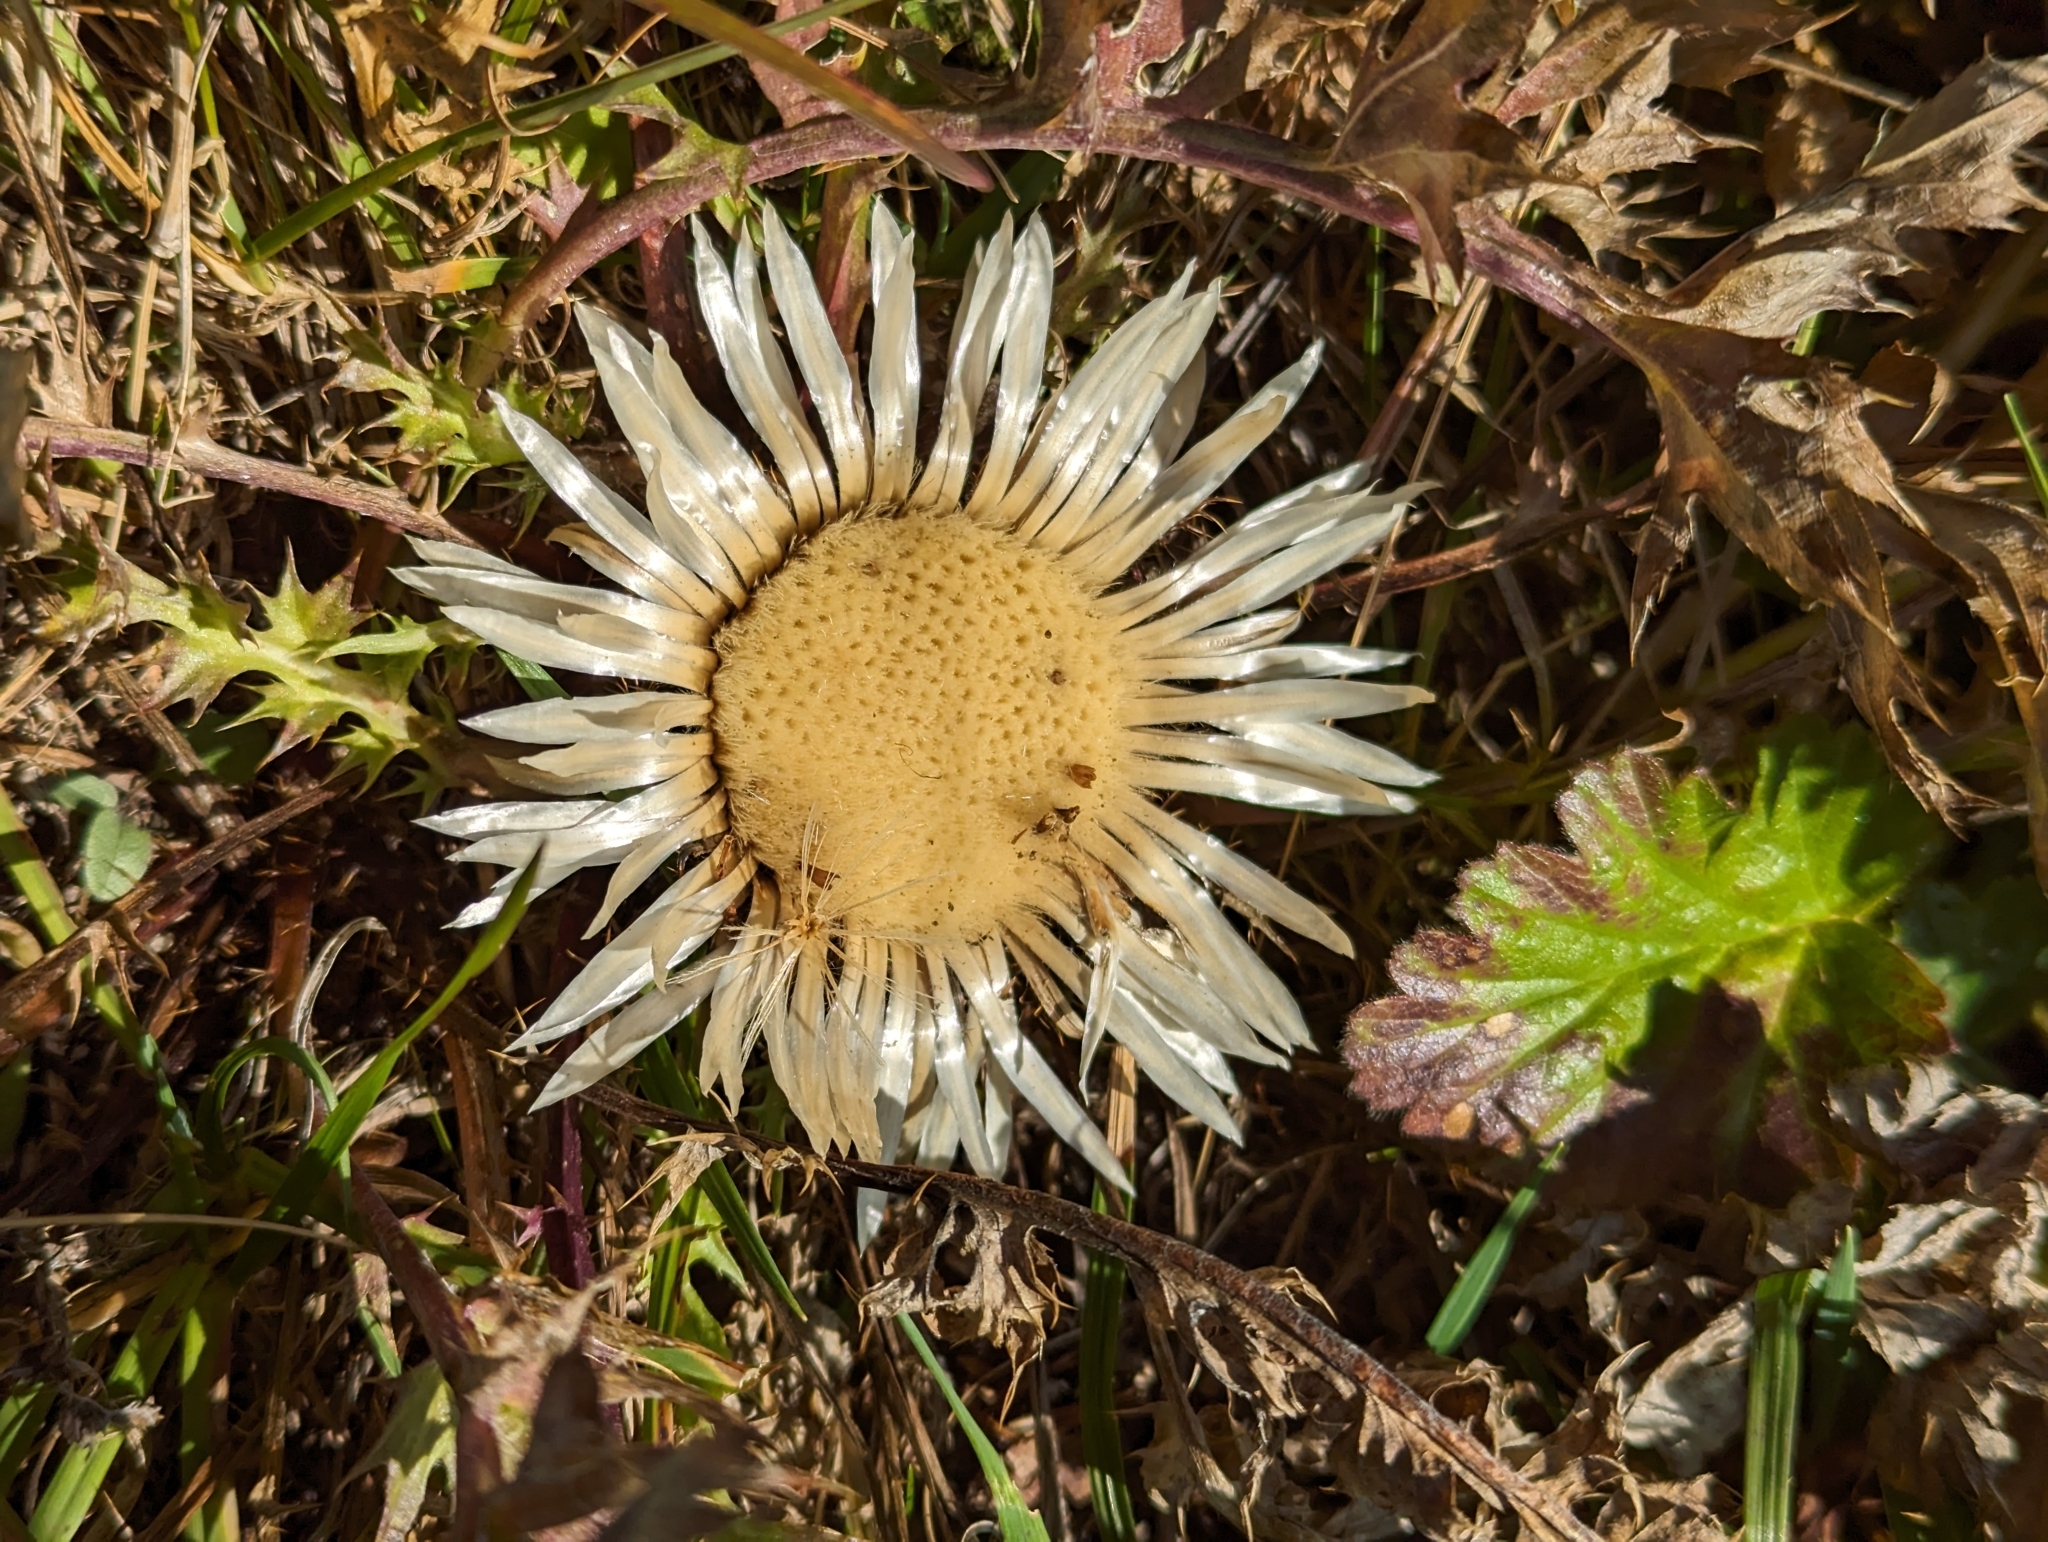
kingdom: Plantae
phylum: Tracheophyta
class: Magnoliopsida
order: Asterales
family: Asteraceae
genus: Carlina
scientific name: Carlina acaulis
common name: Stemless carline thistle
